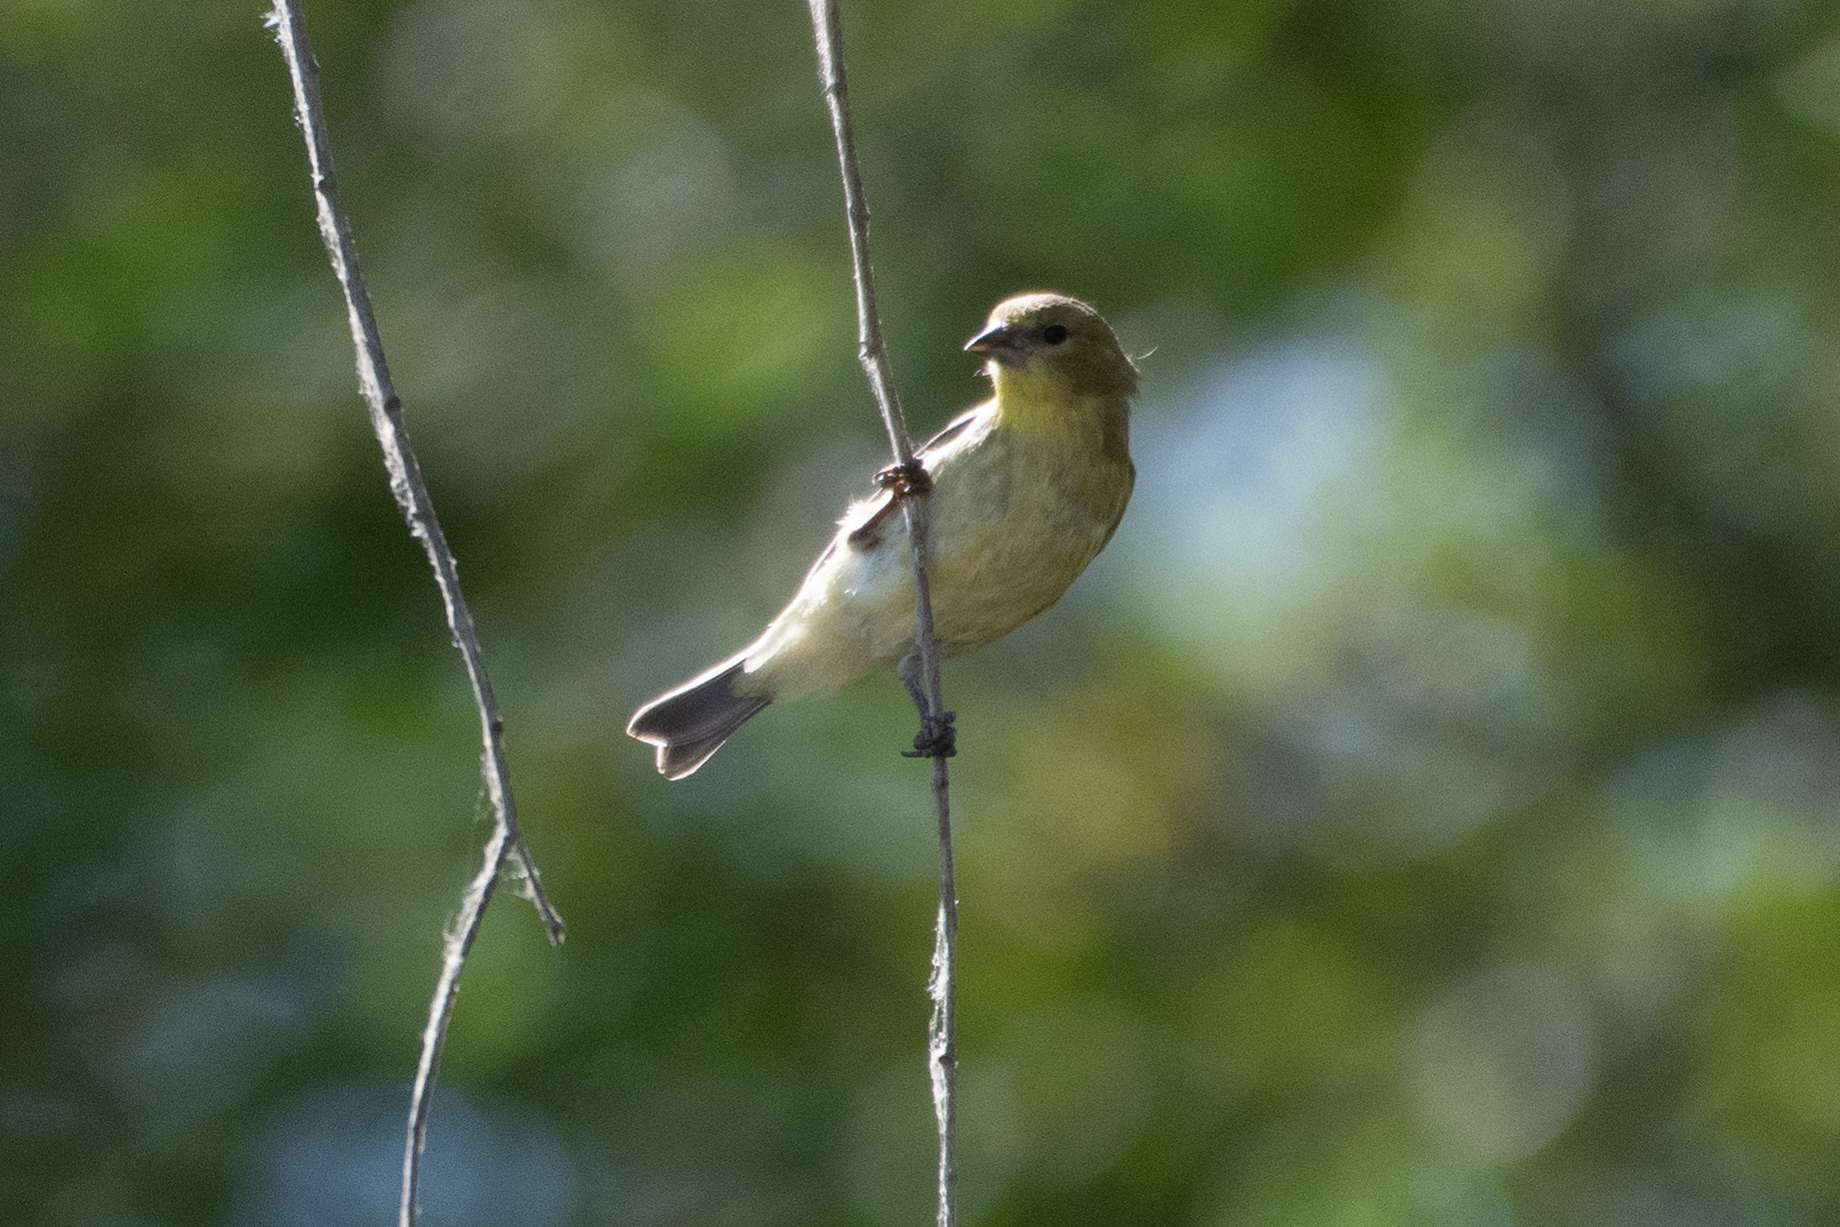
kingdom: Animalia
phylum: Chordata
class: Aves
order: Passeriformes
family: Fringillidae
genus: Spinus
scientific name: Spinus psaltria
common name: Lesser goldfinch
